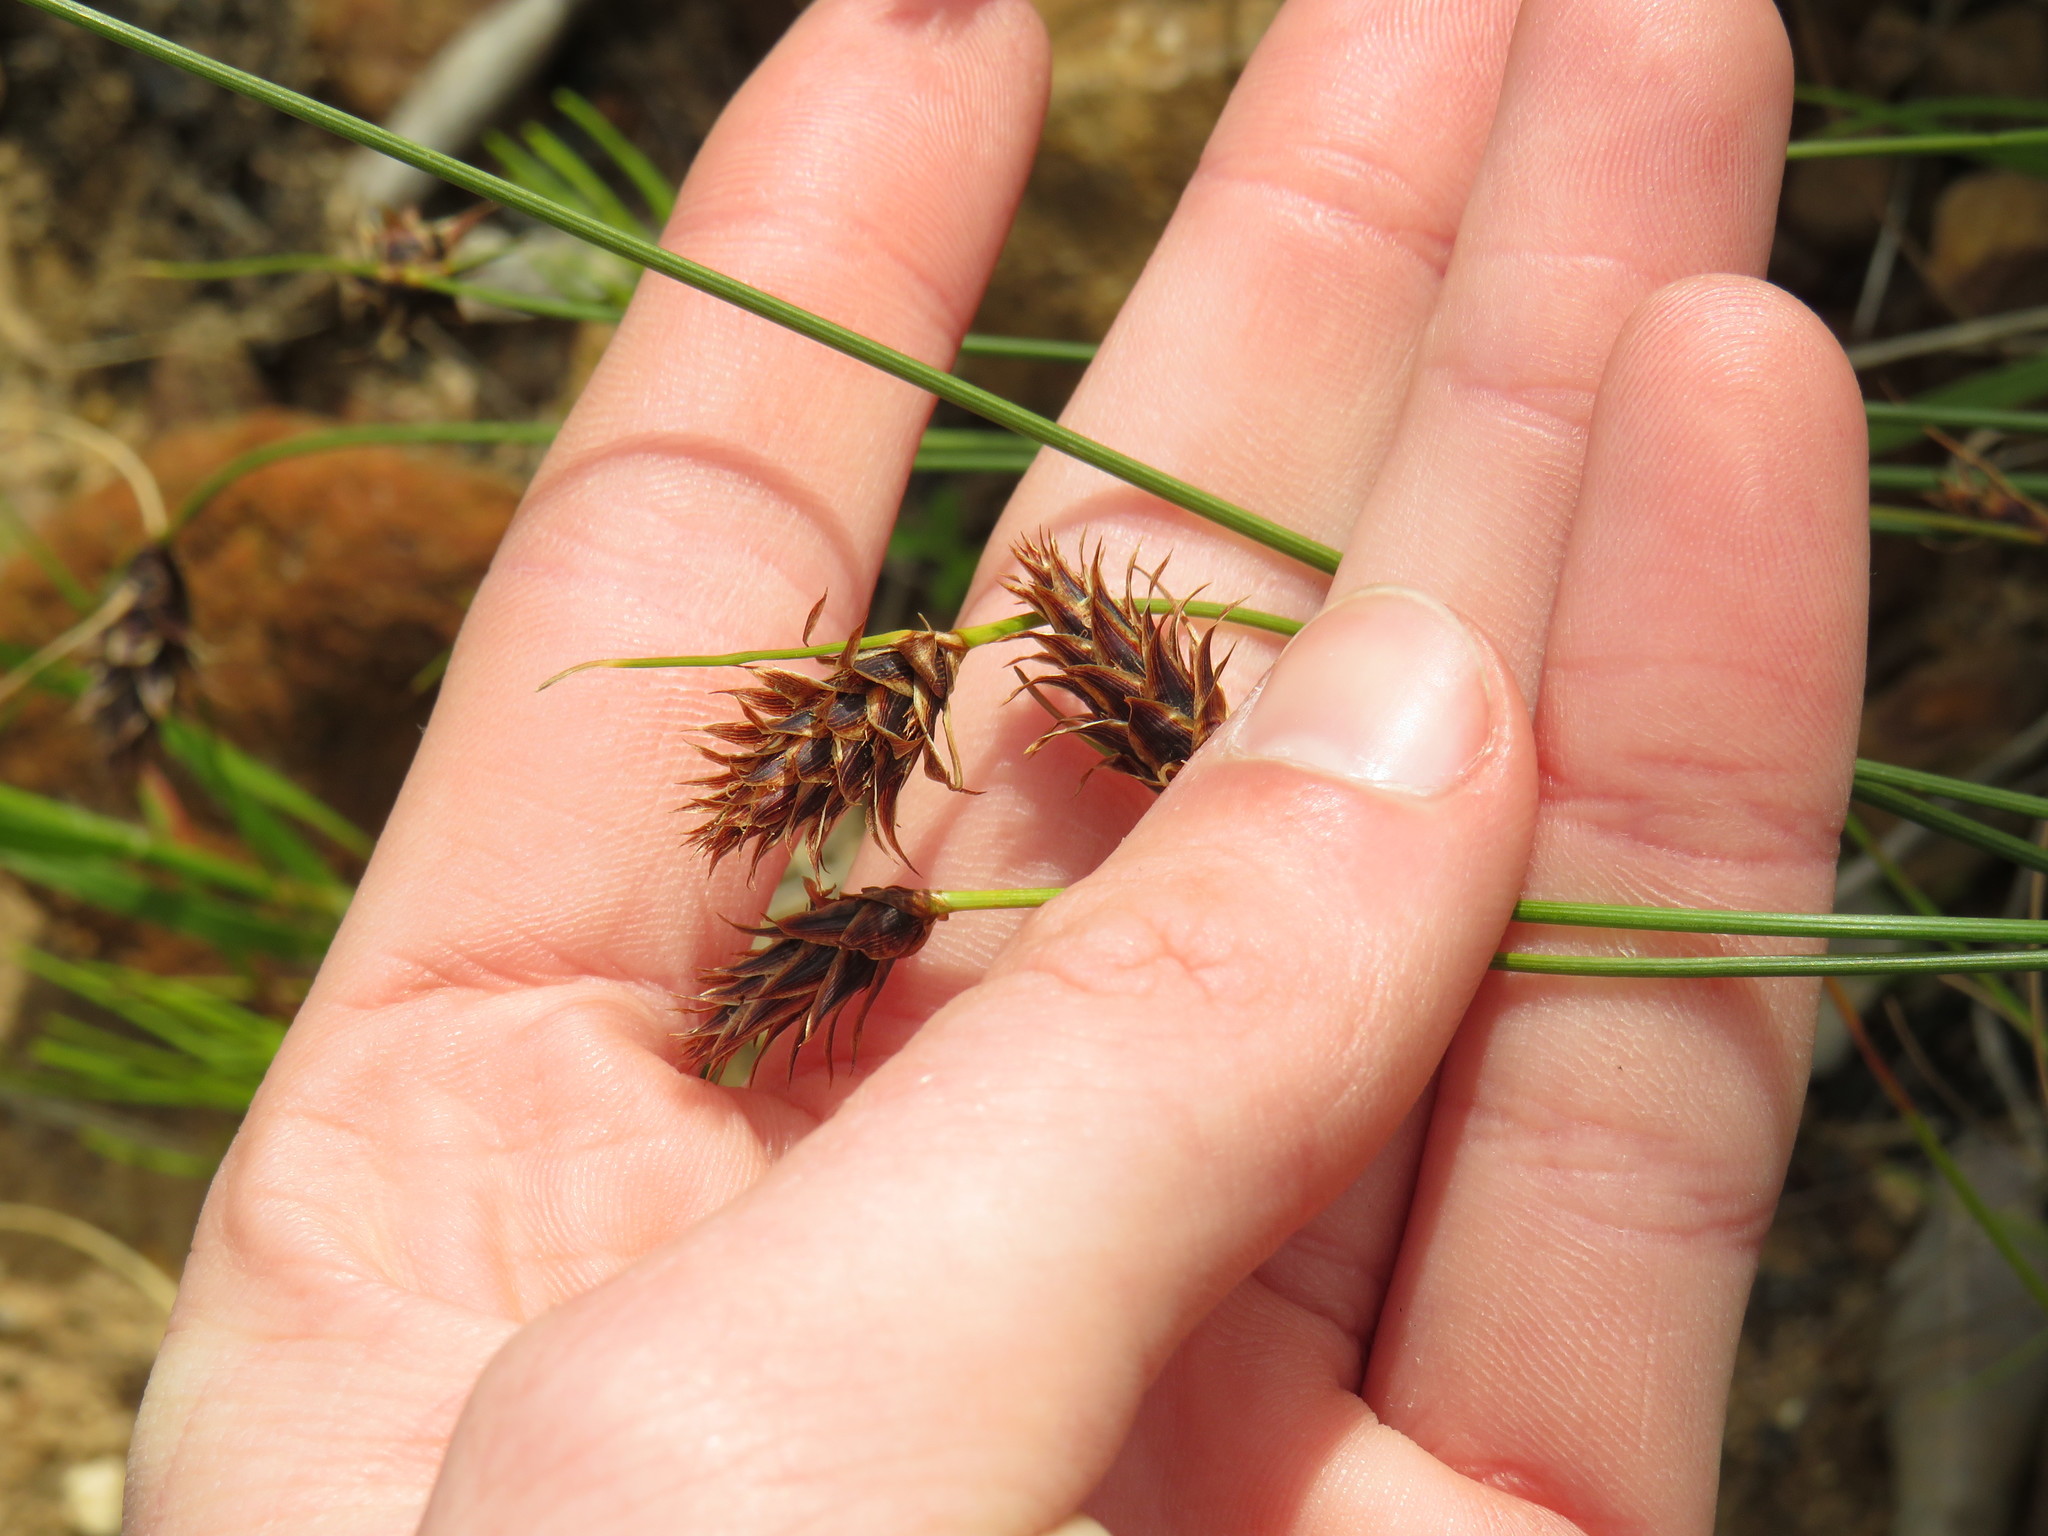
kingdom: Plantae
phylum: Tracheophyta
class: Liliopsida
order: Poales
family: Cyperaceae
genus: Ficinia
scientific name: Ficinia nigrescens
